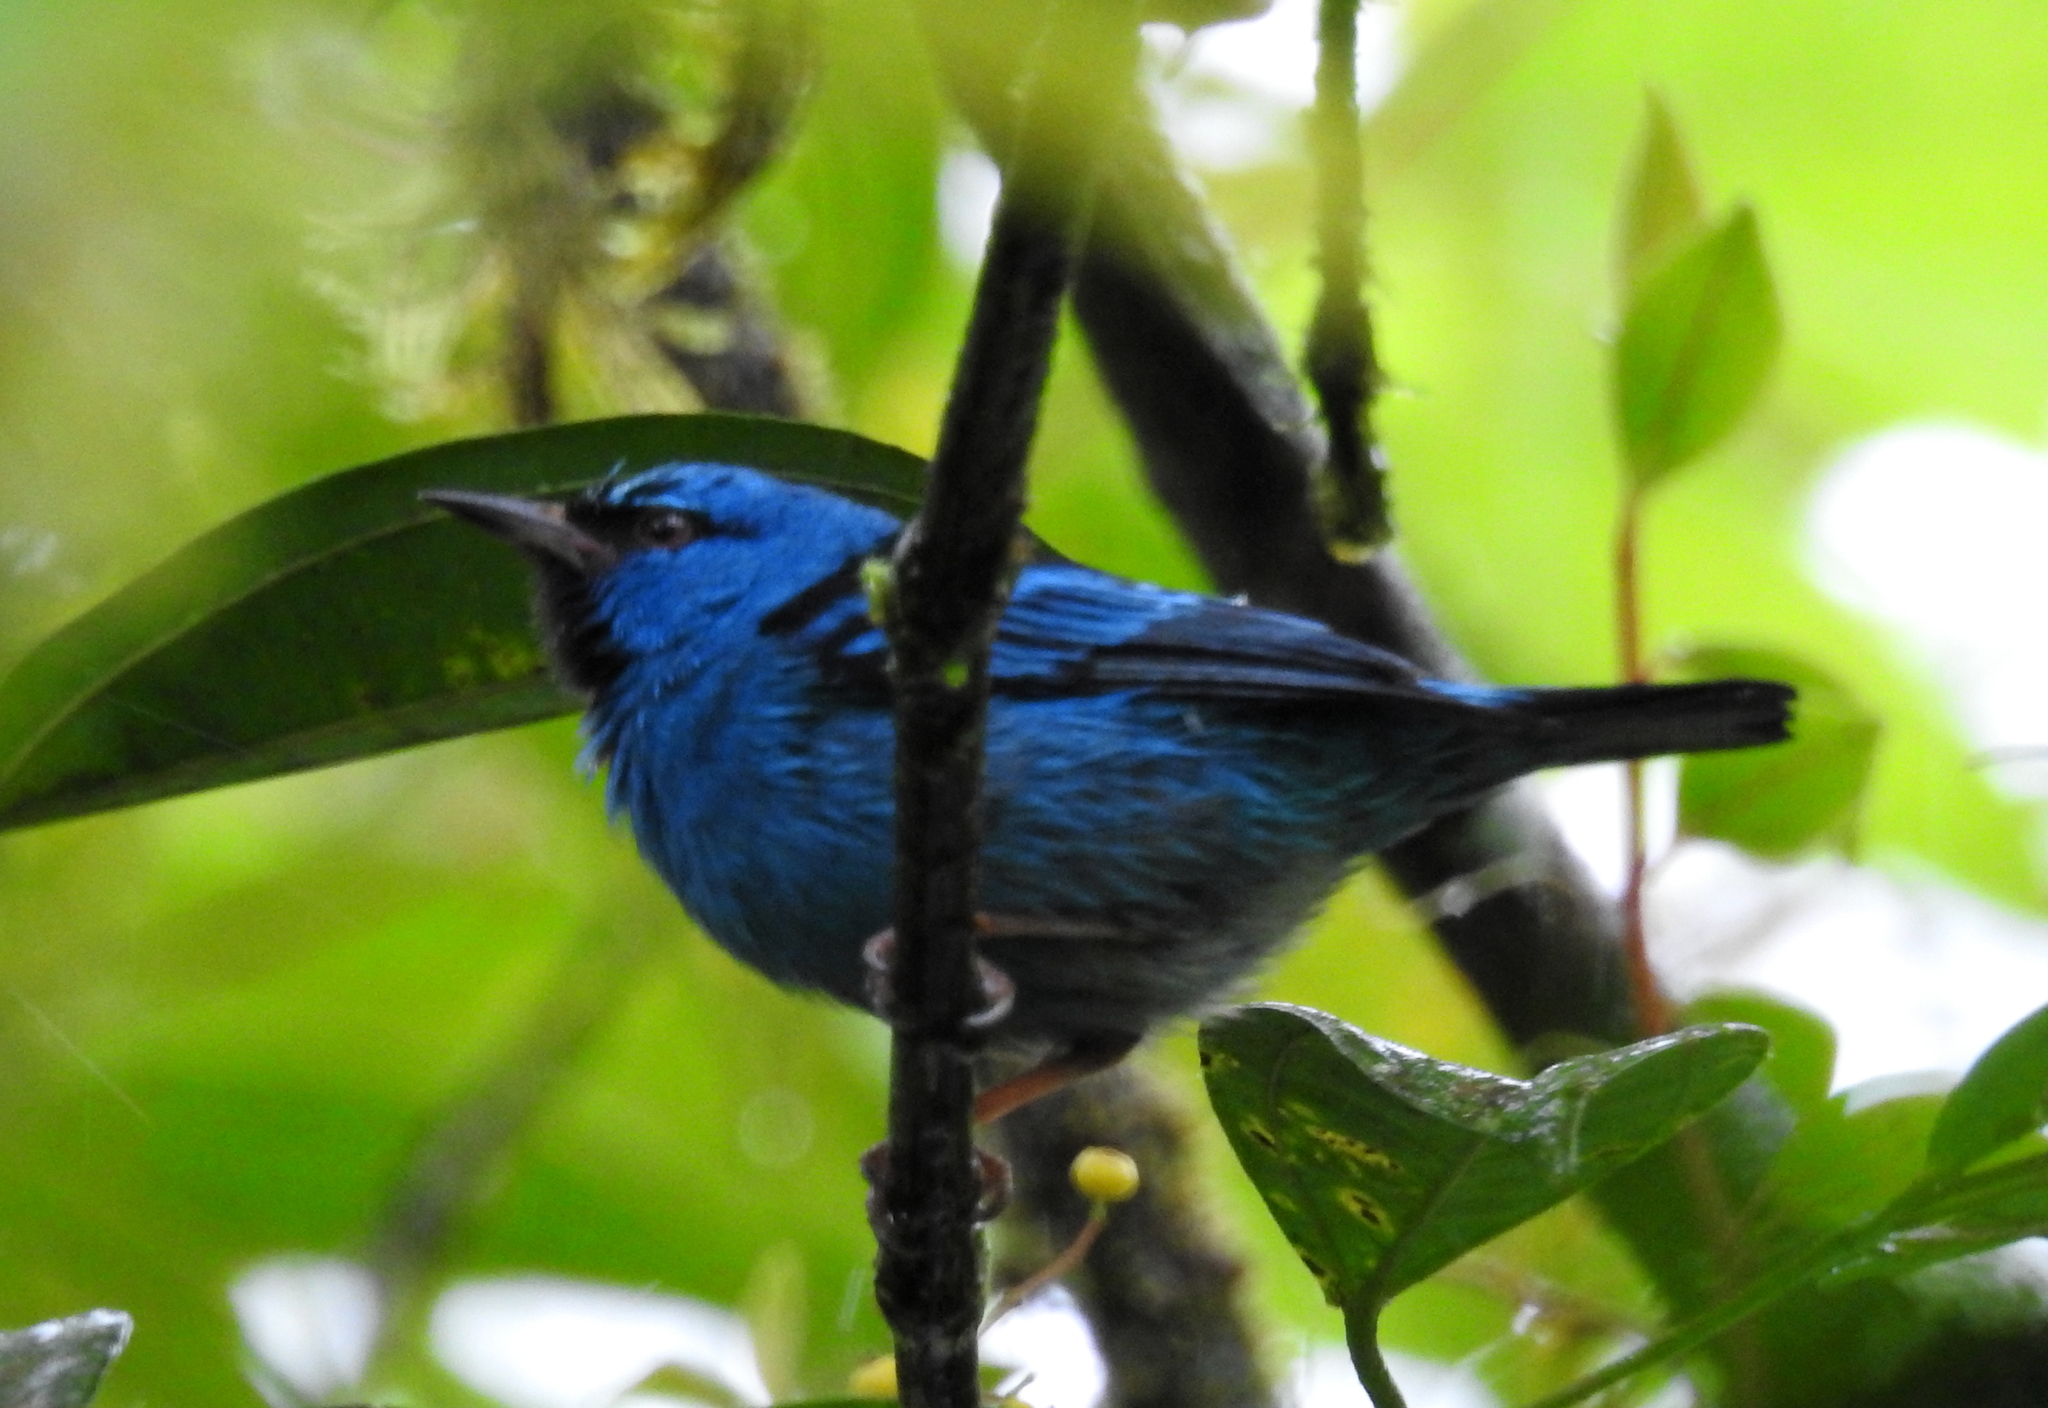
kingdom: Animalia
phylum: Chordata
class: Aves
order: Passeriformes
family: Thraupidae
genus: Dacnis
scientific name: Dacnis cayana
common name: Blue dacnis
